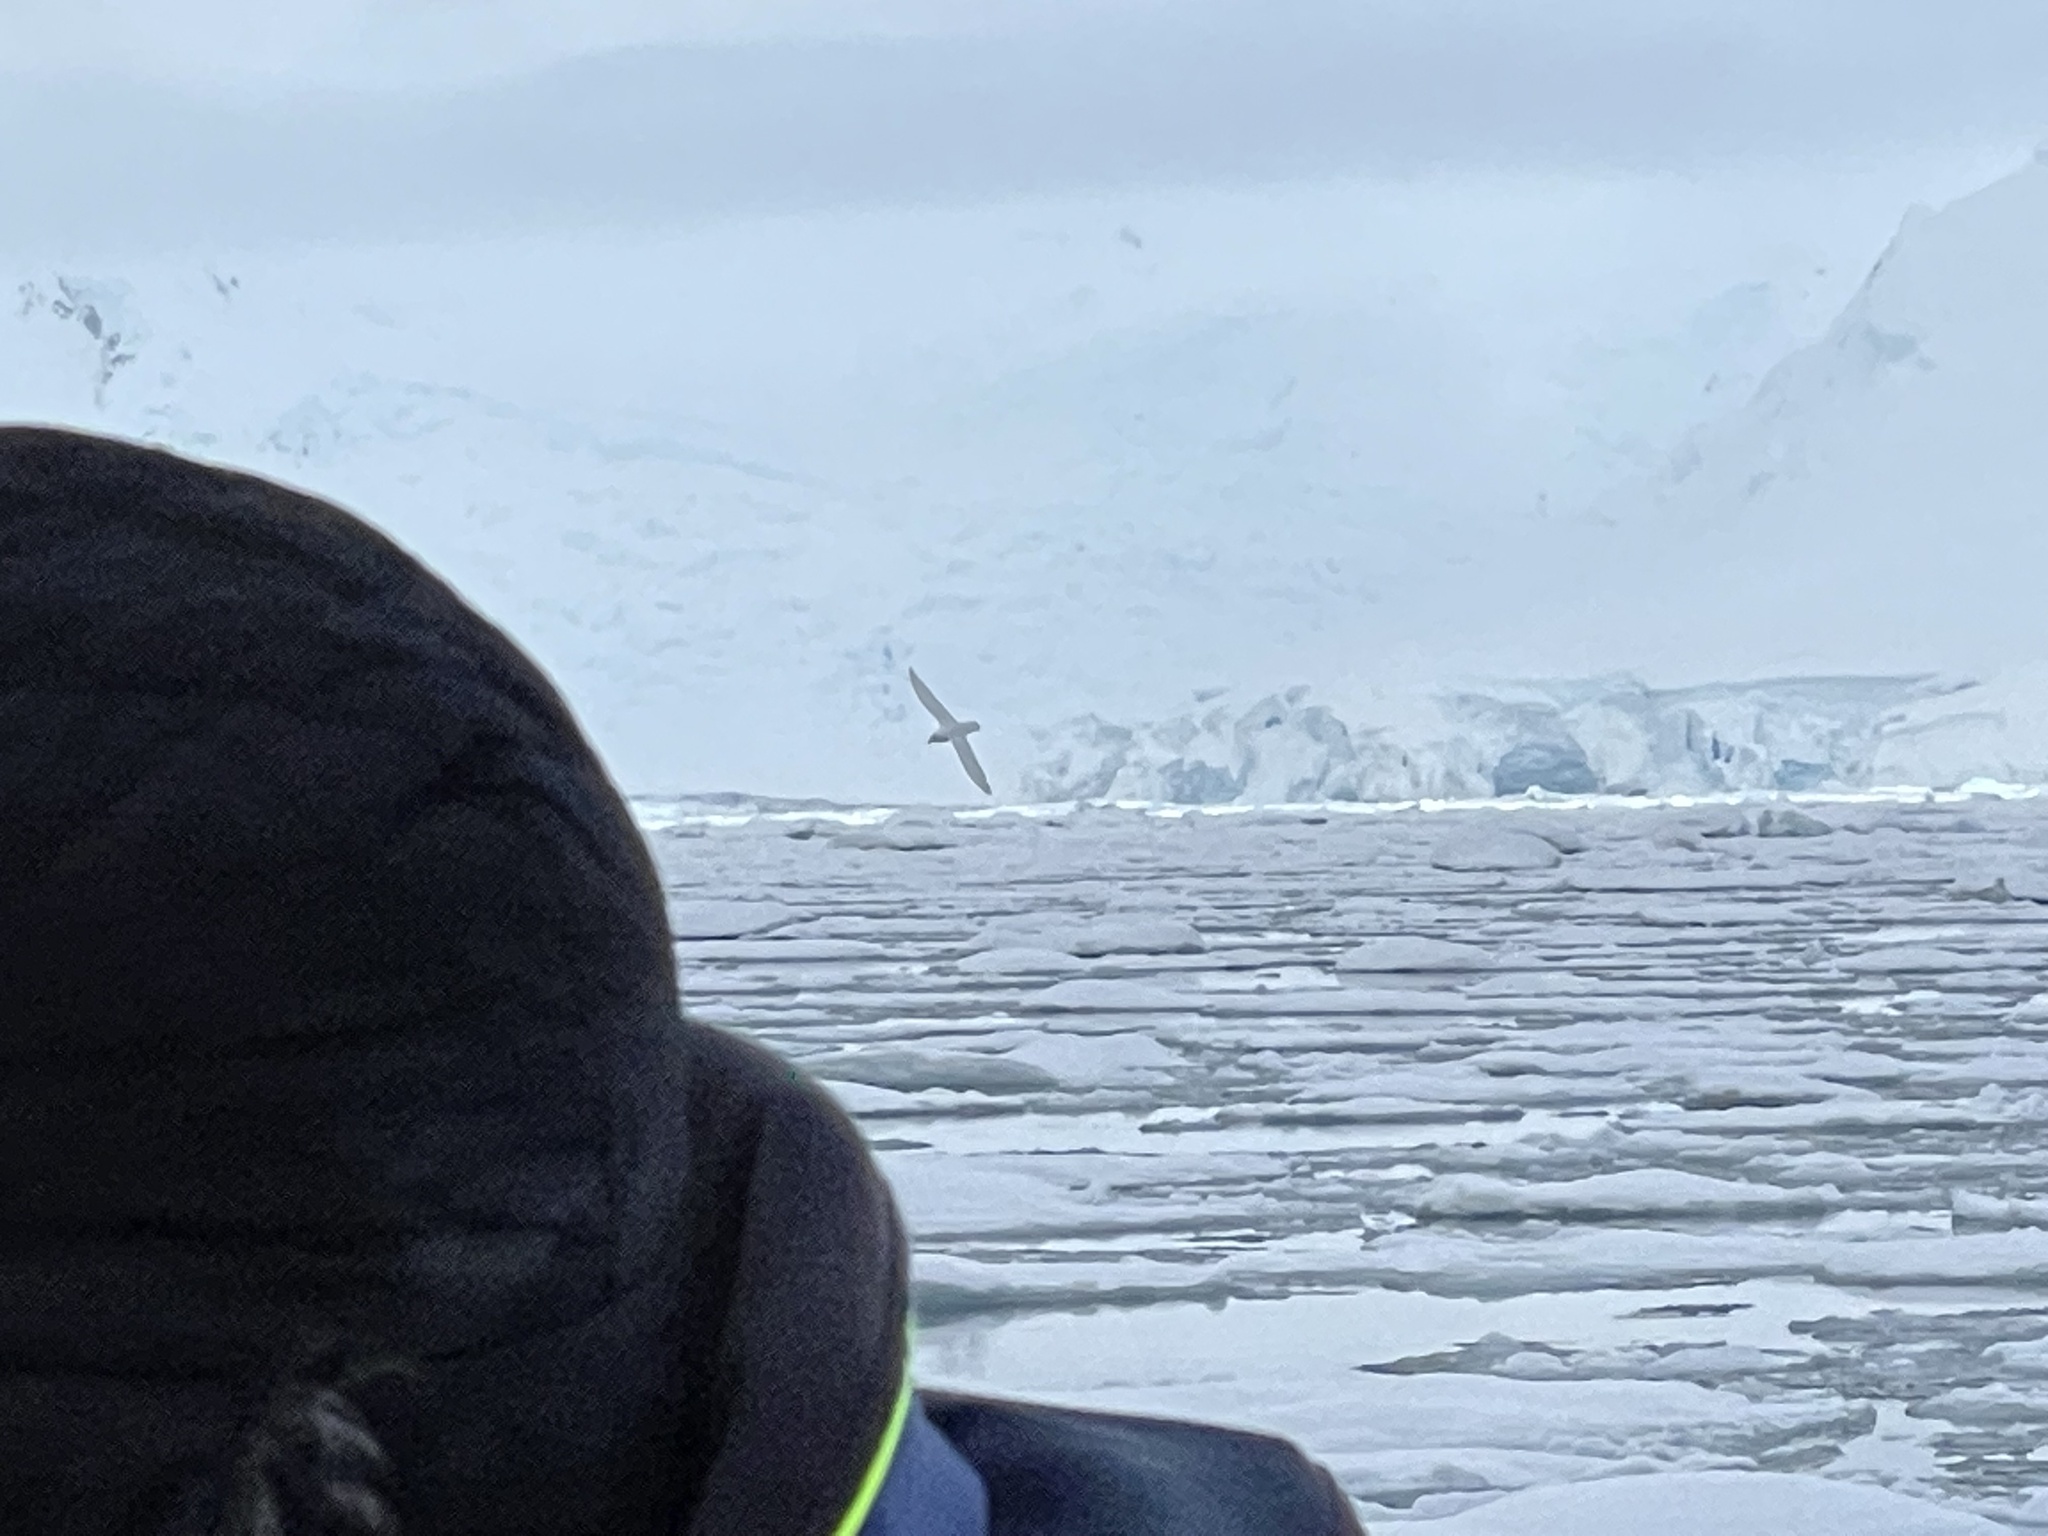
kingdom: Animalia
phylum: Chordata
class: Aves
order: Procellariiformes
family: Procellariidae
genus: Pagodroma
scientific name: Pagodroma nivea
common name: Snow petrel
